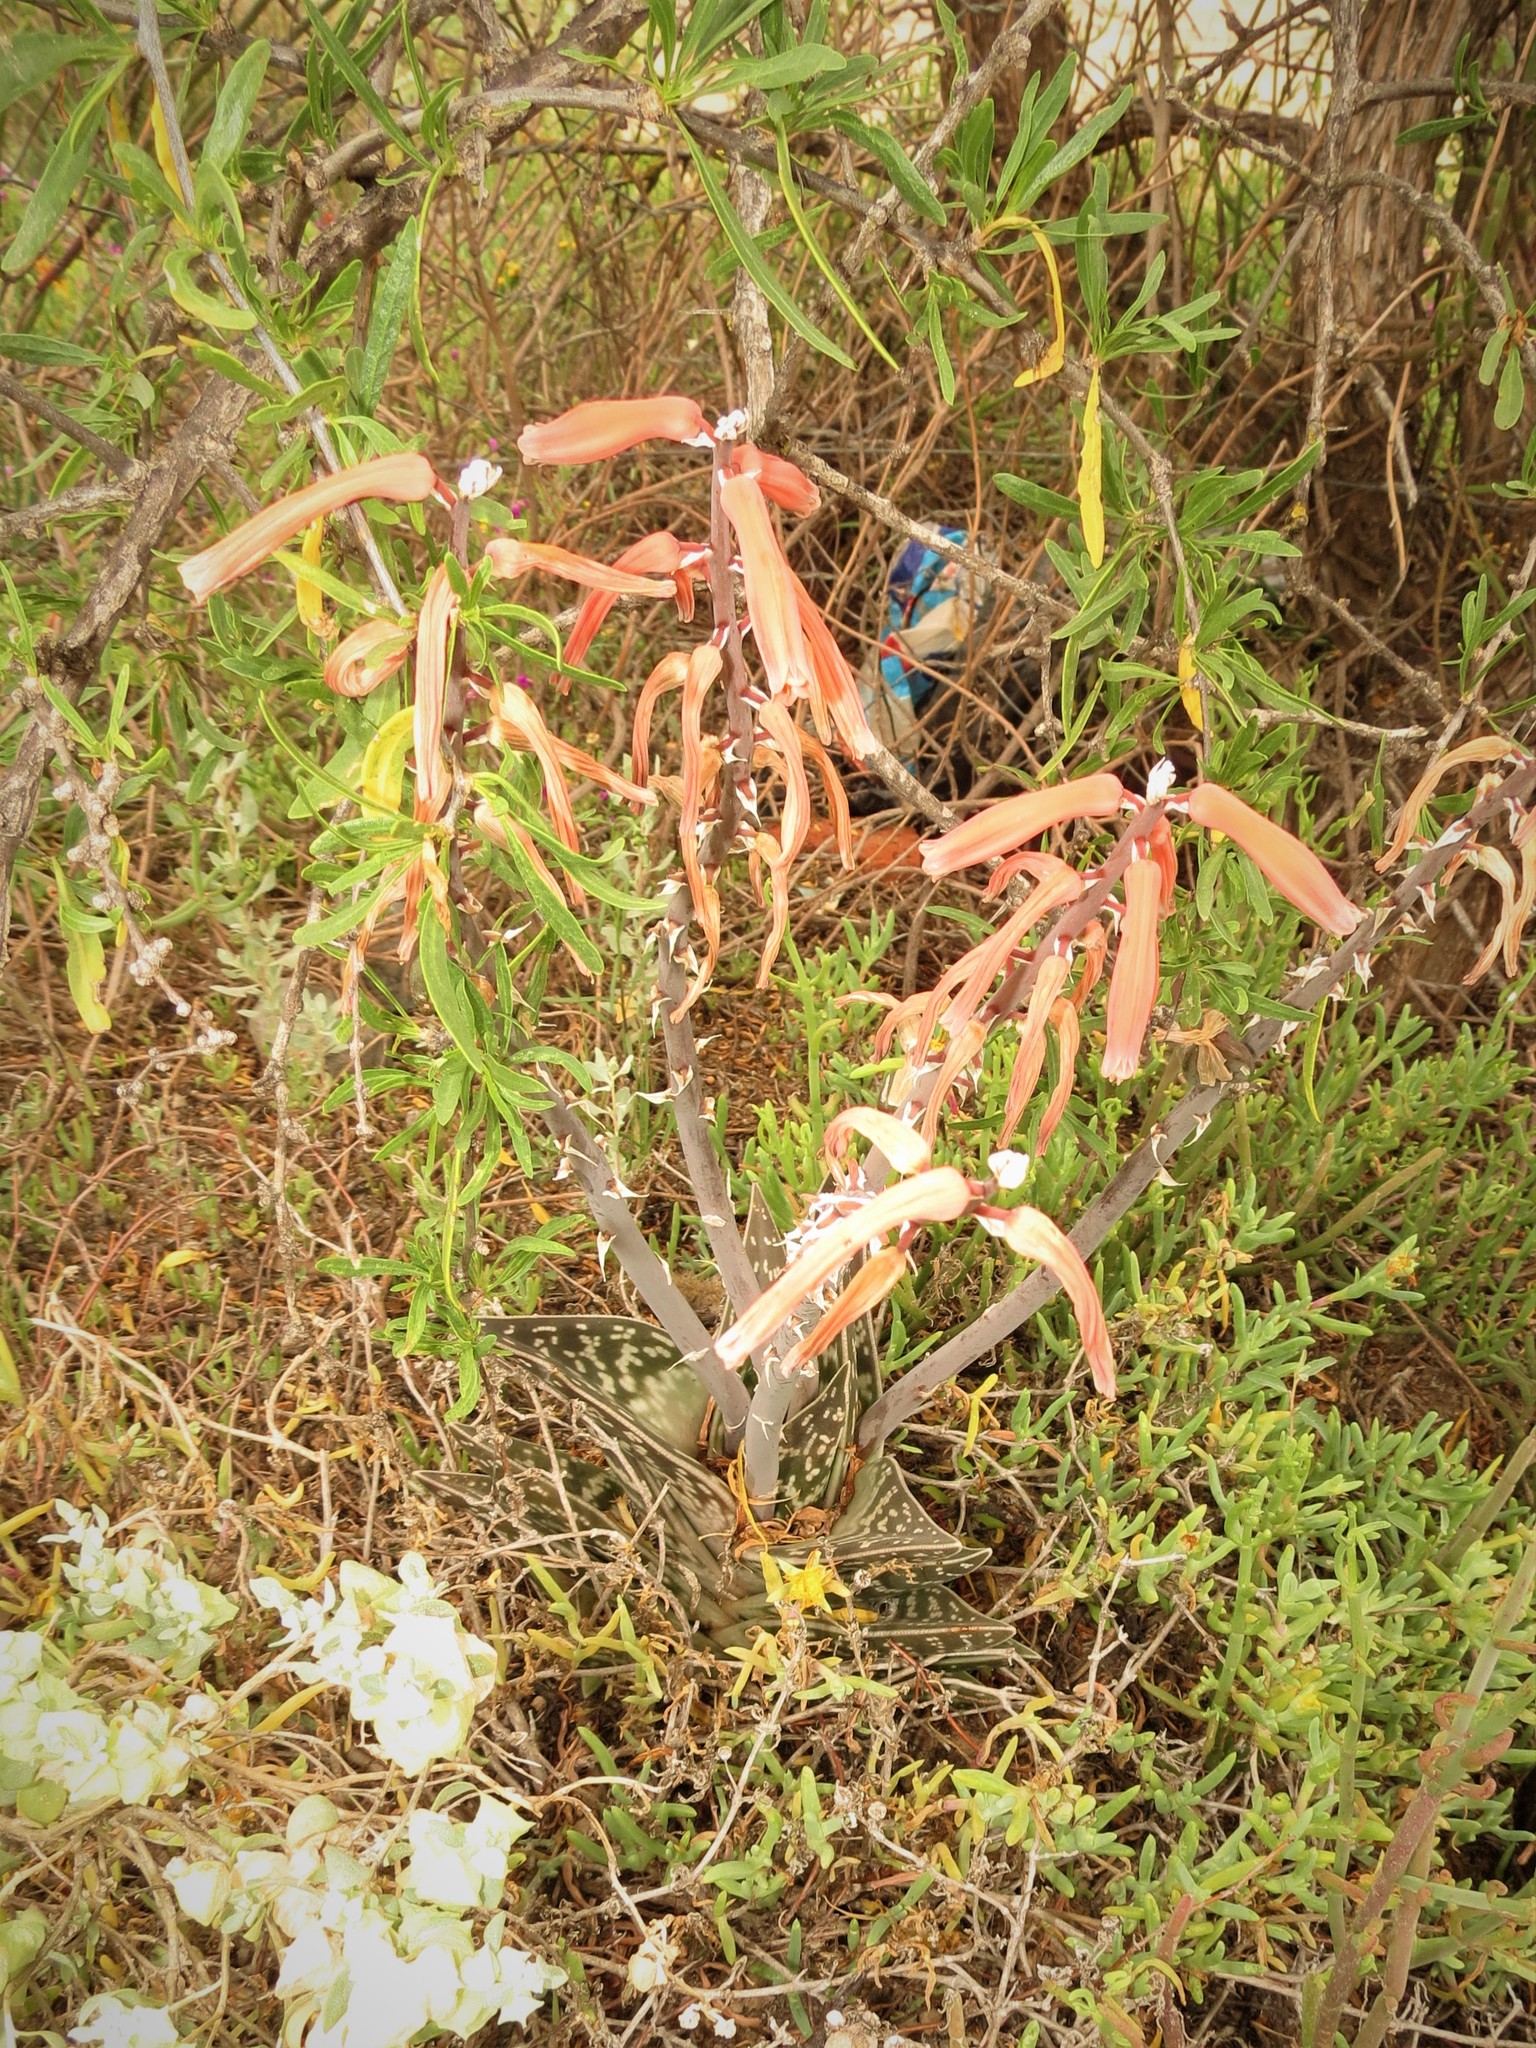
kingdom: Plantae
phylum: Tracheophyta
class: Liliopsida
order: Asparagales
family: Asphodelaceae
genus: Gonialoe
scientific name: Gonialoe variegata
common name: Aloe variegata
